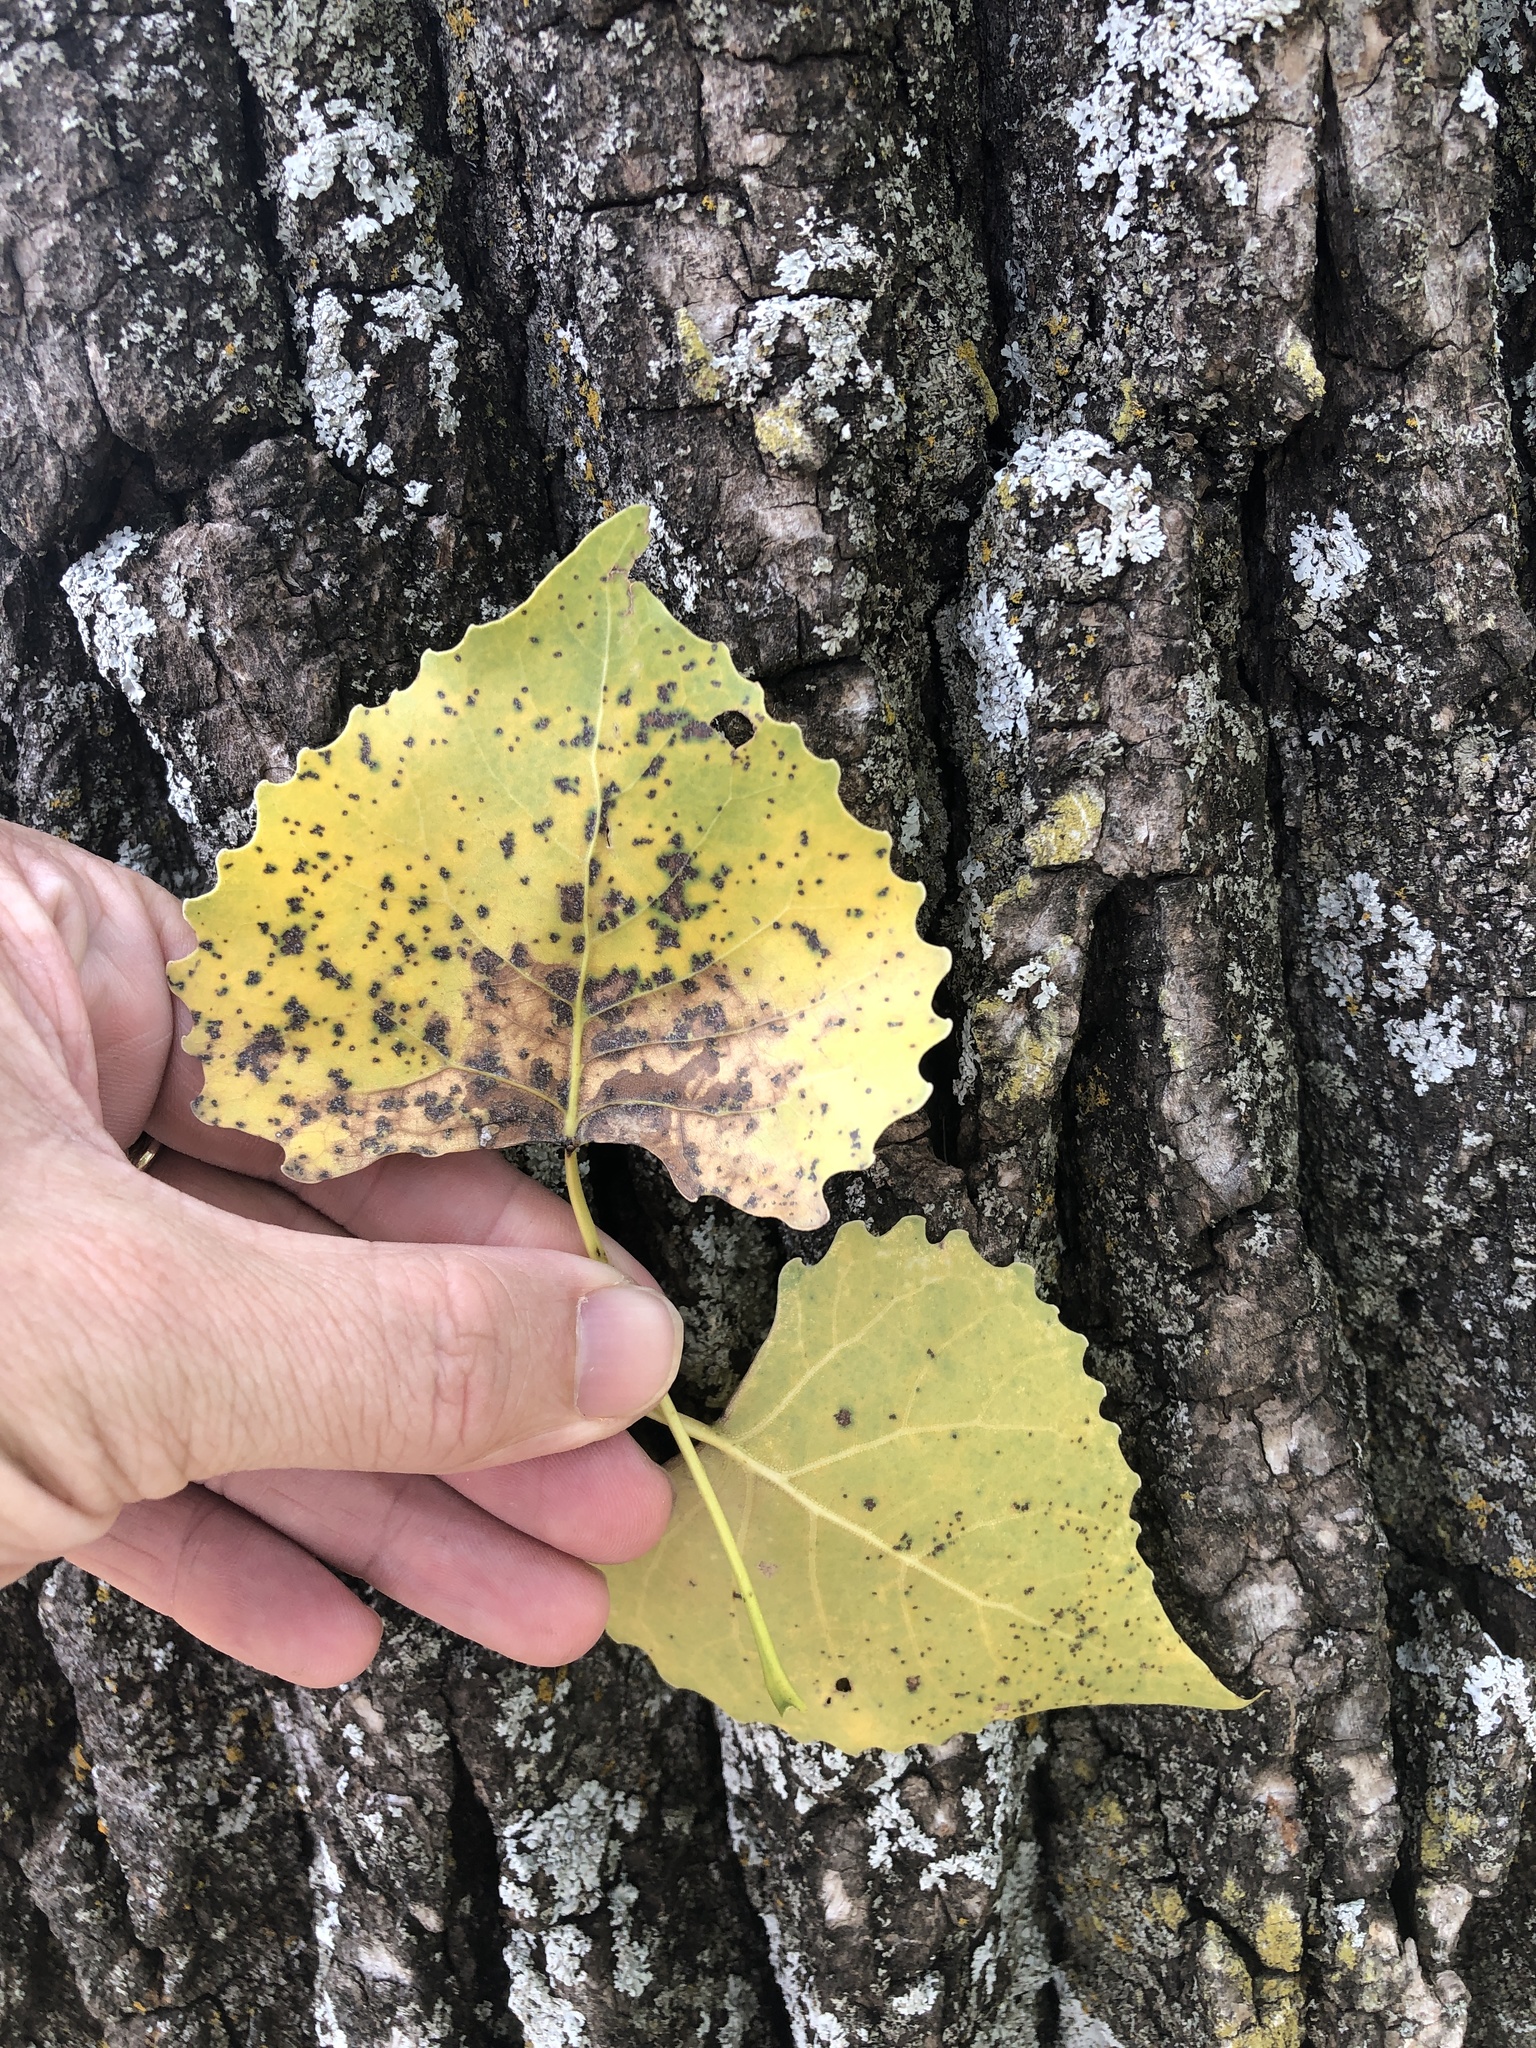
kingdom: Plantae
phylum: Tracheophyta
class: Magnoliopsida
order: Malpighiales
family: Salicaceae
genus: Populus
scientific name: Populus deltoides
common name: Eastern cottonwood
